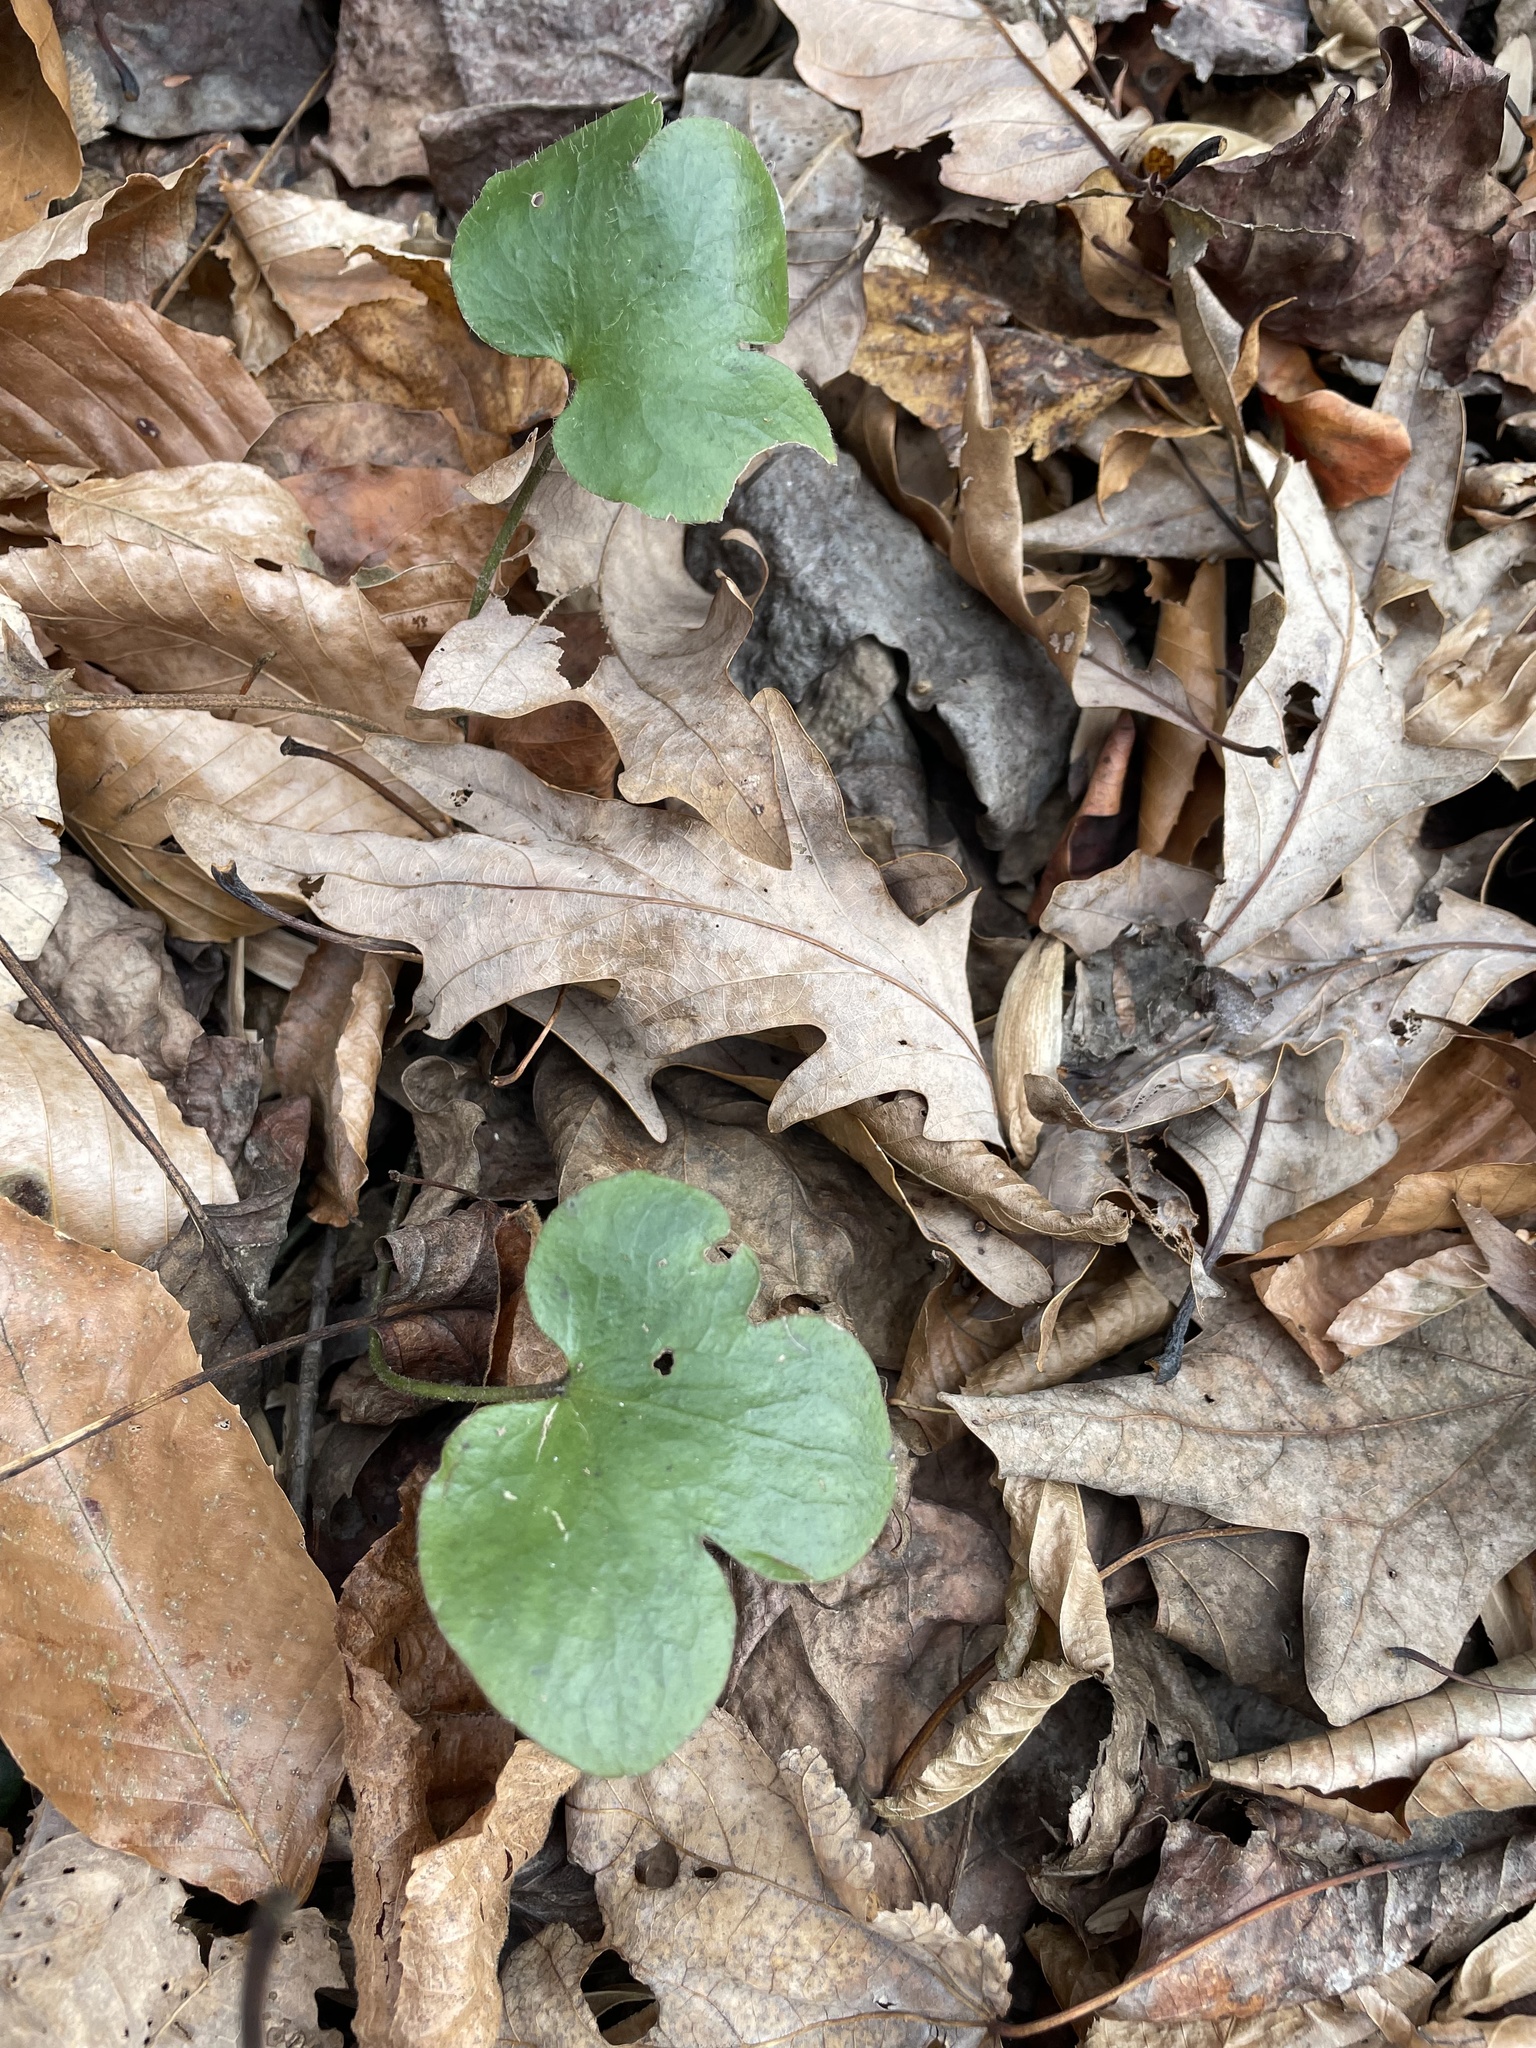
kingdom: Plantae
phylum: Tracheophyta
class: Magnoliopsida
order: Ranunculales
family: Ranunculaceae
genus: Hepatica
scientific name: Hepatica americana
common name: American hepatica
